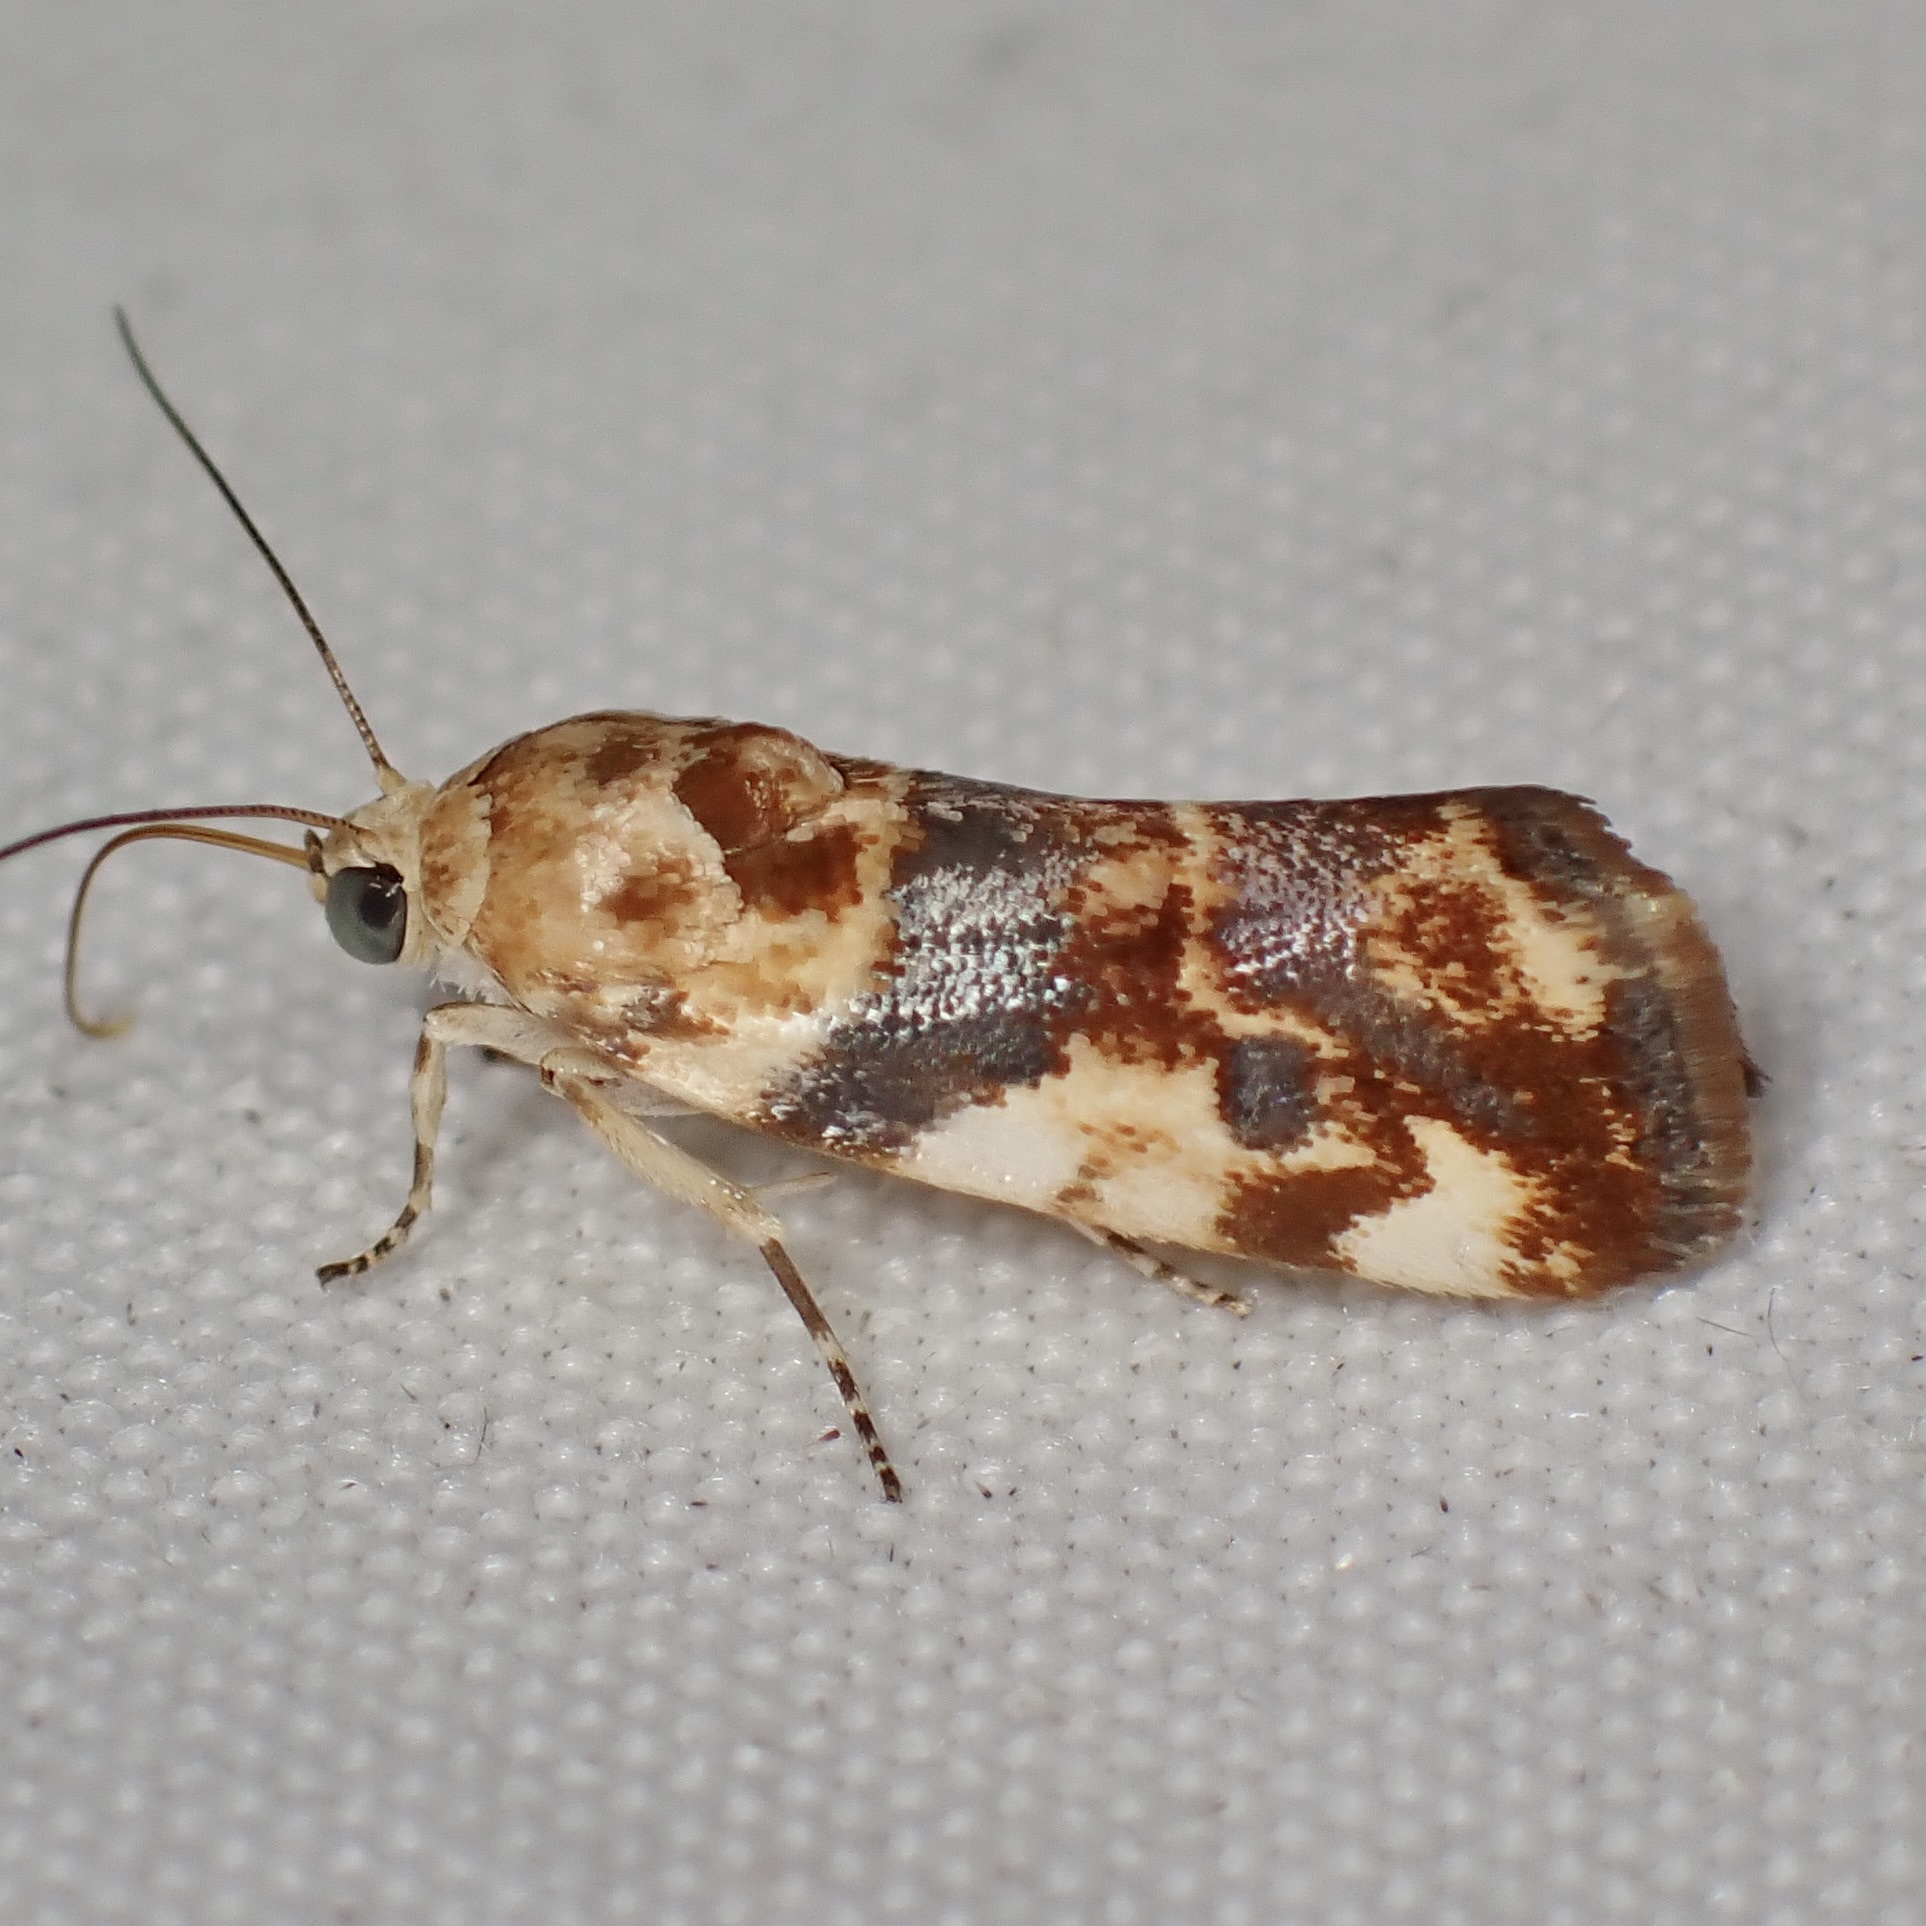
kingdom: Animalia
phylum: Arthropoda
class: Insecta
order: Lepidoptera
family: Noctuidae
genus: Acontia
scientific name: Acontia obatra
